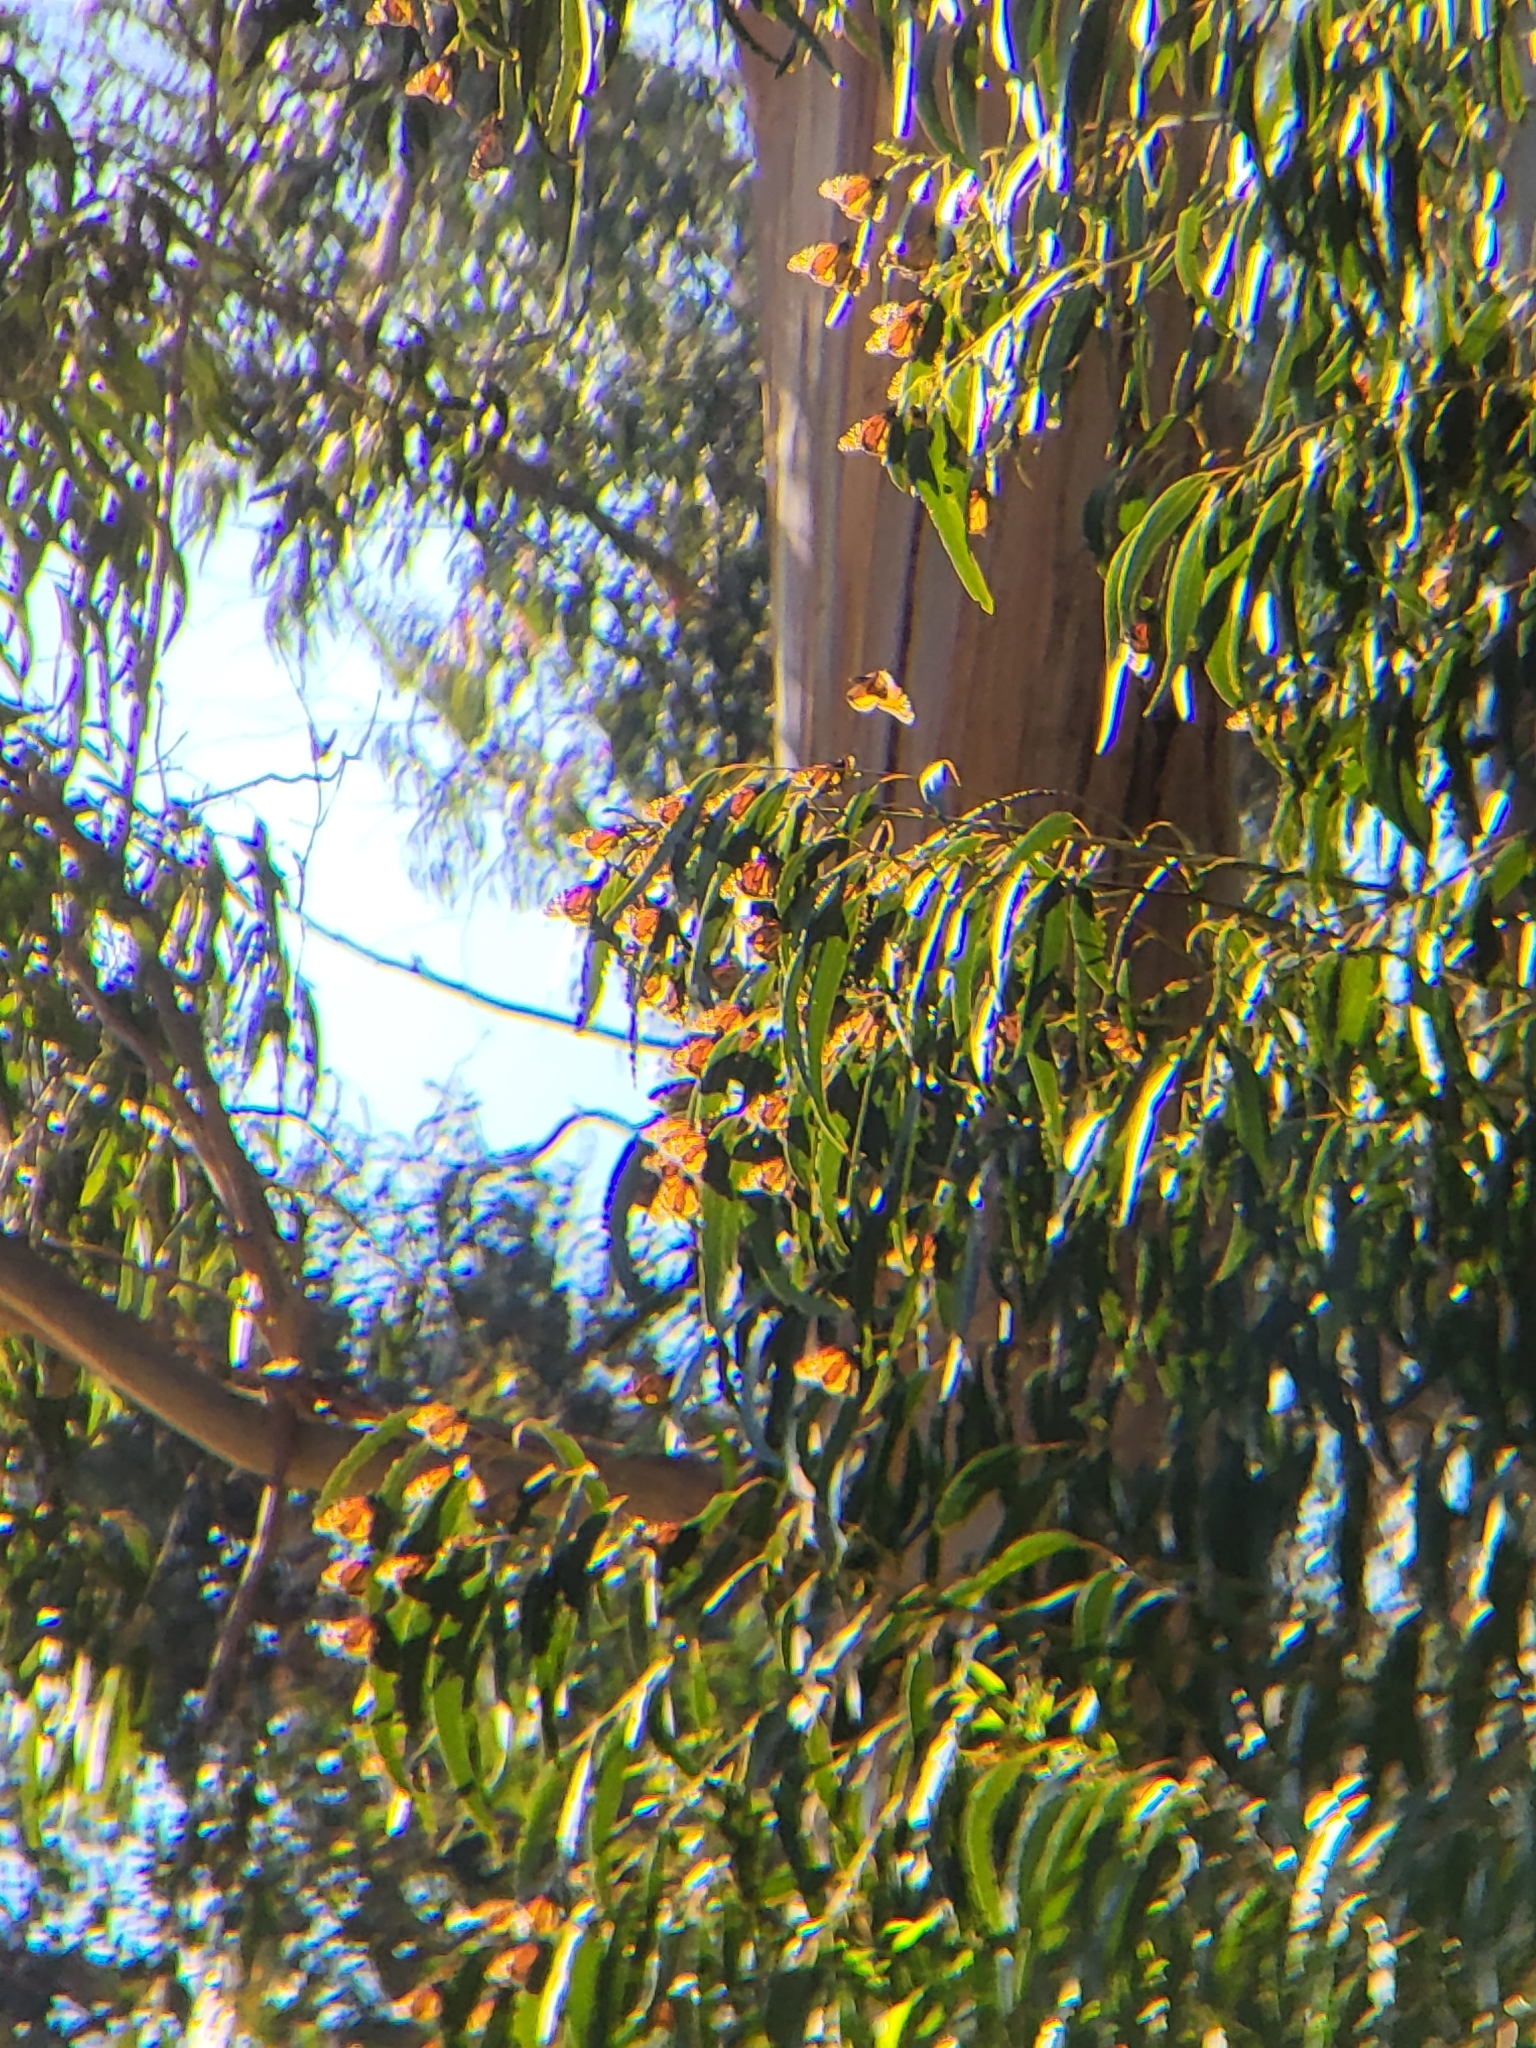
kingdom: Animalia
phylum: Arthropoda
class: Insecta
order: Lepidoptera
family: Nymphalidae
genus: Danaus
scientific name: Danaus plexippus
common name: Monarch
